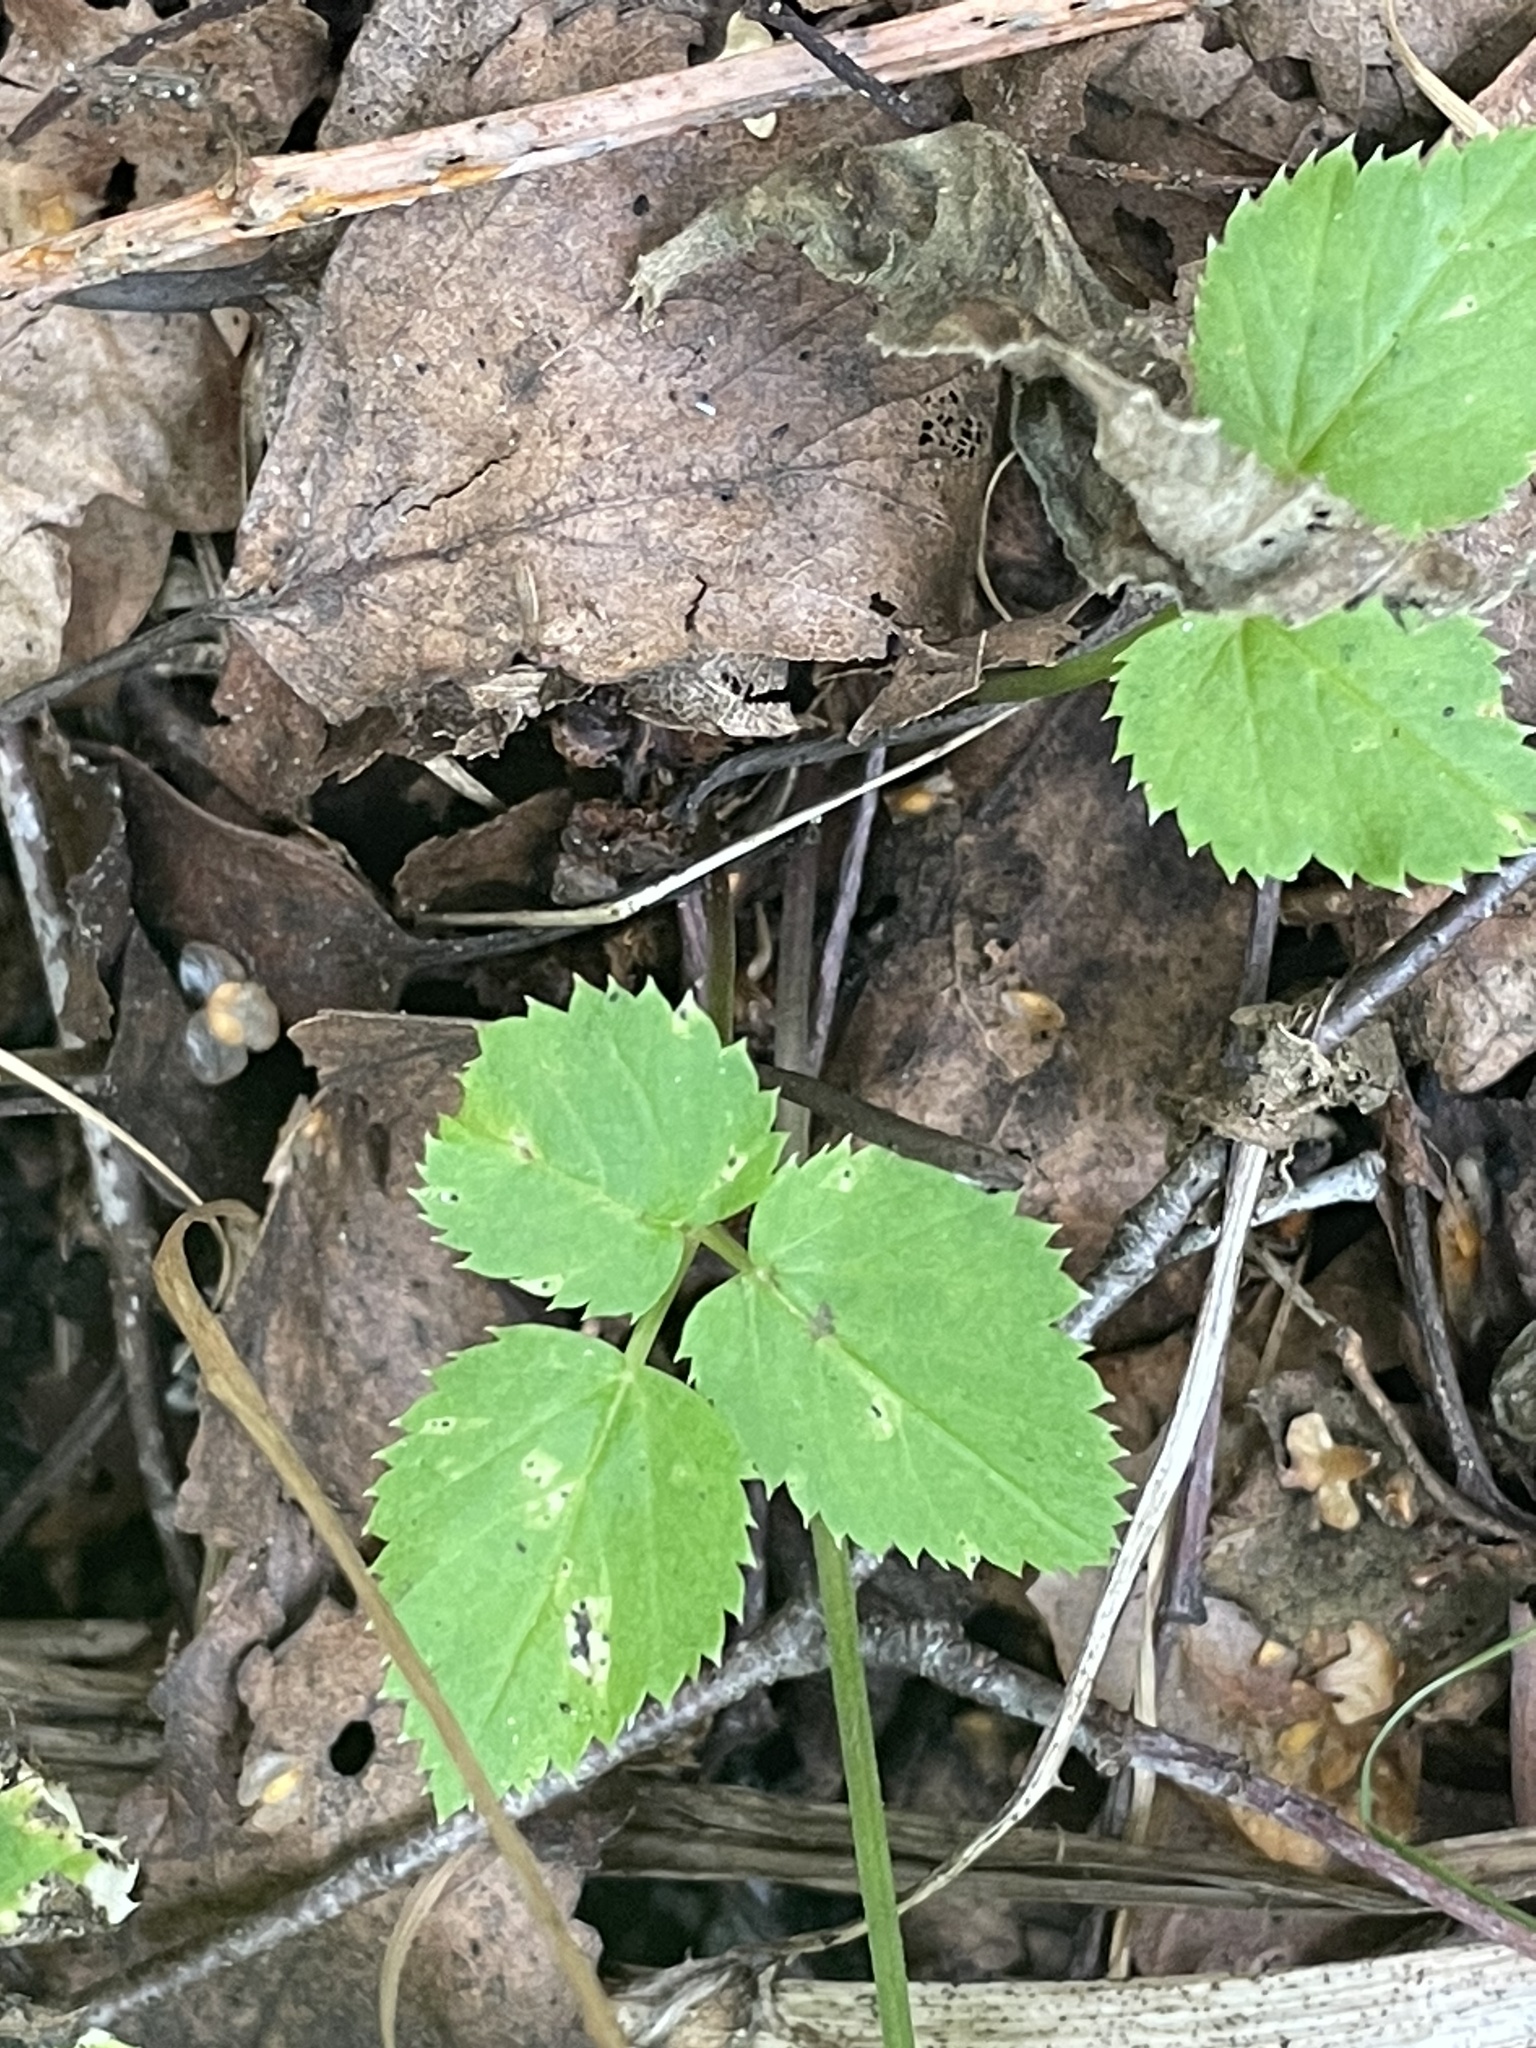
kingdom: Plantae
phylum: Tracheophyta
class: Magnoliopsida
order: Apiales
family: Apiaceae
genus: Aegopodium
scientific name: Aegopodium podagraria
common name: Ground-elder
